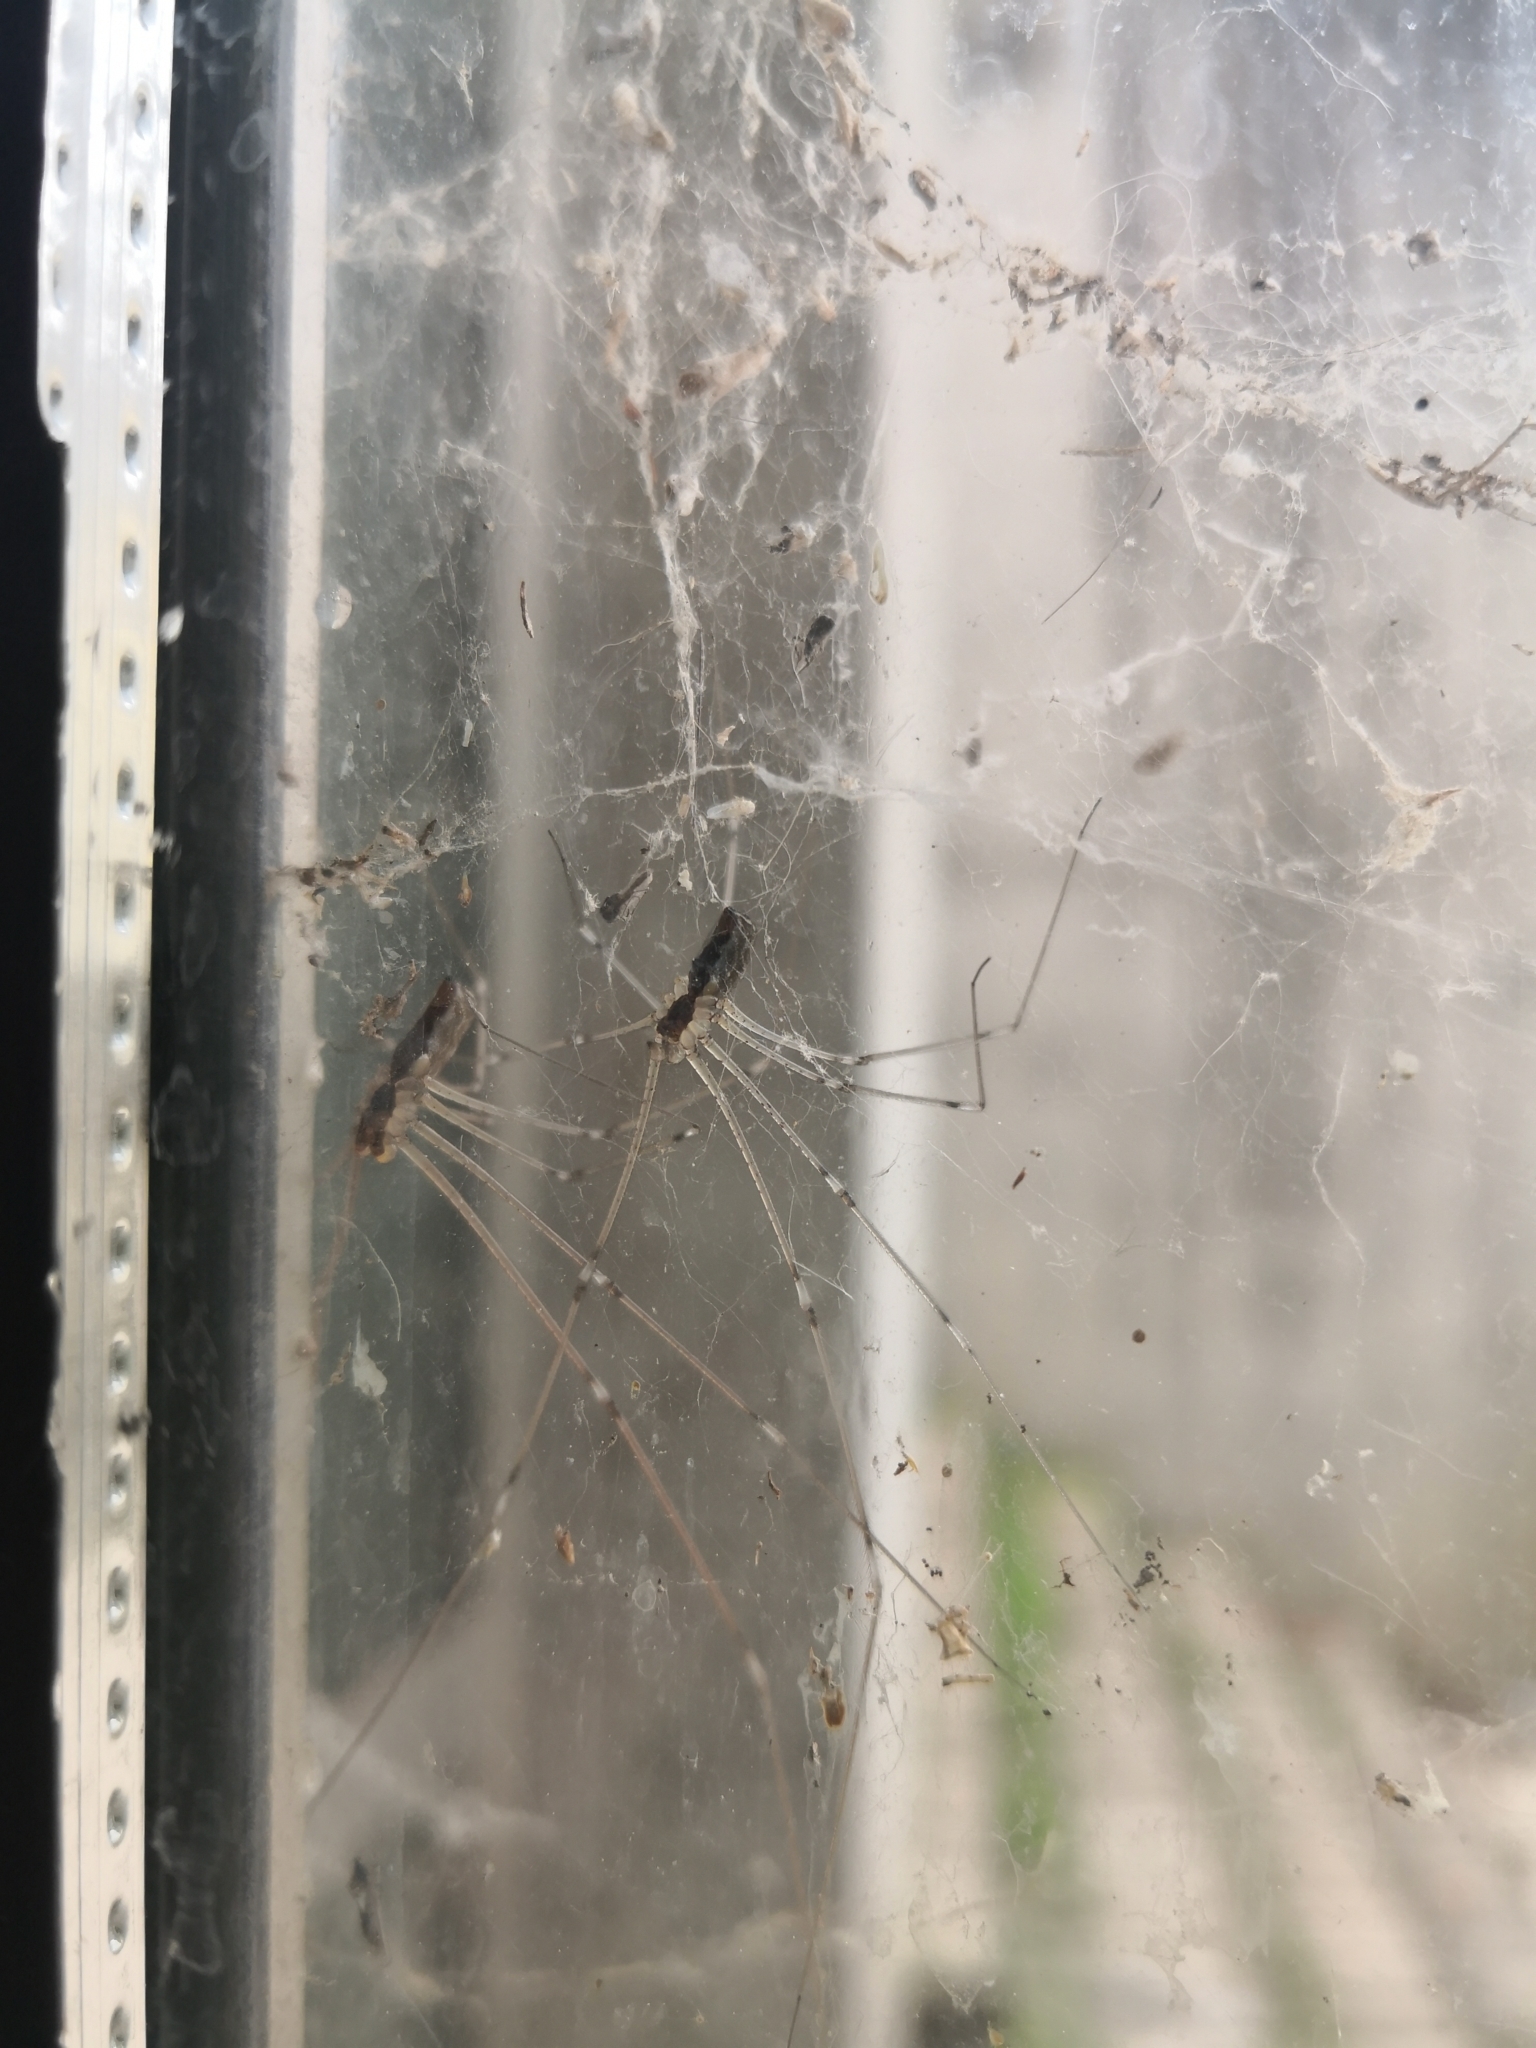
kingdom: Animalia
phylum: Arthropoda
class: Arachnida
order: Araneae
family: Pholcidae
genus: Holocnemus
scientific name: Holocnemus pluchei
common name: Marbled cellar spider
